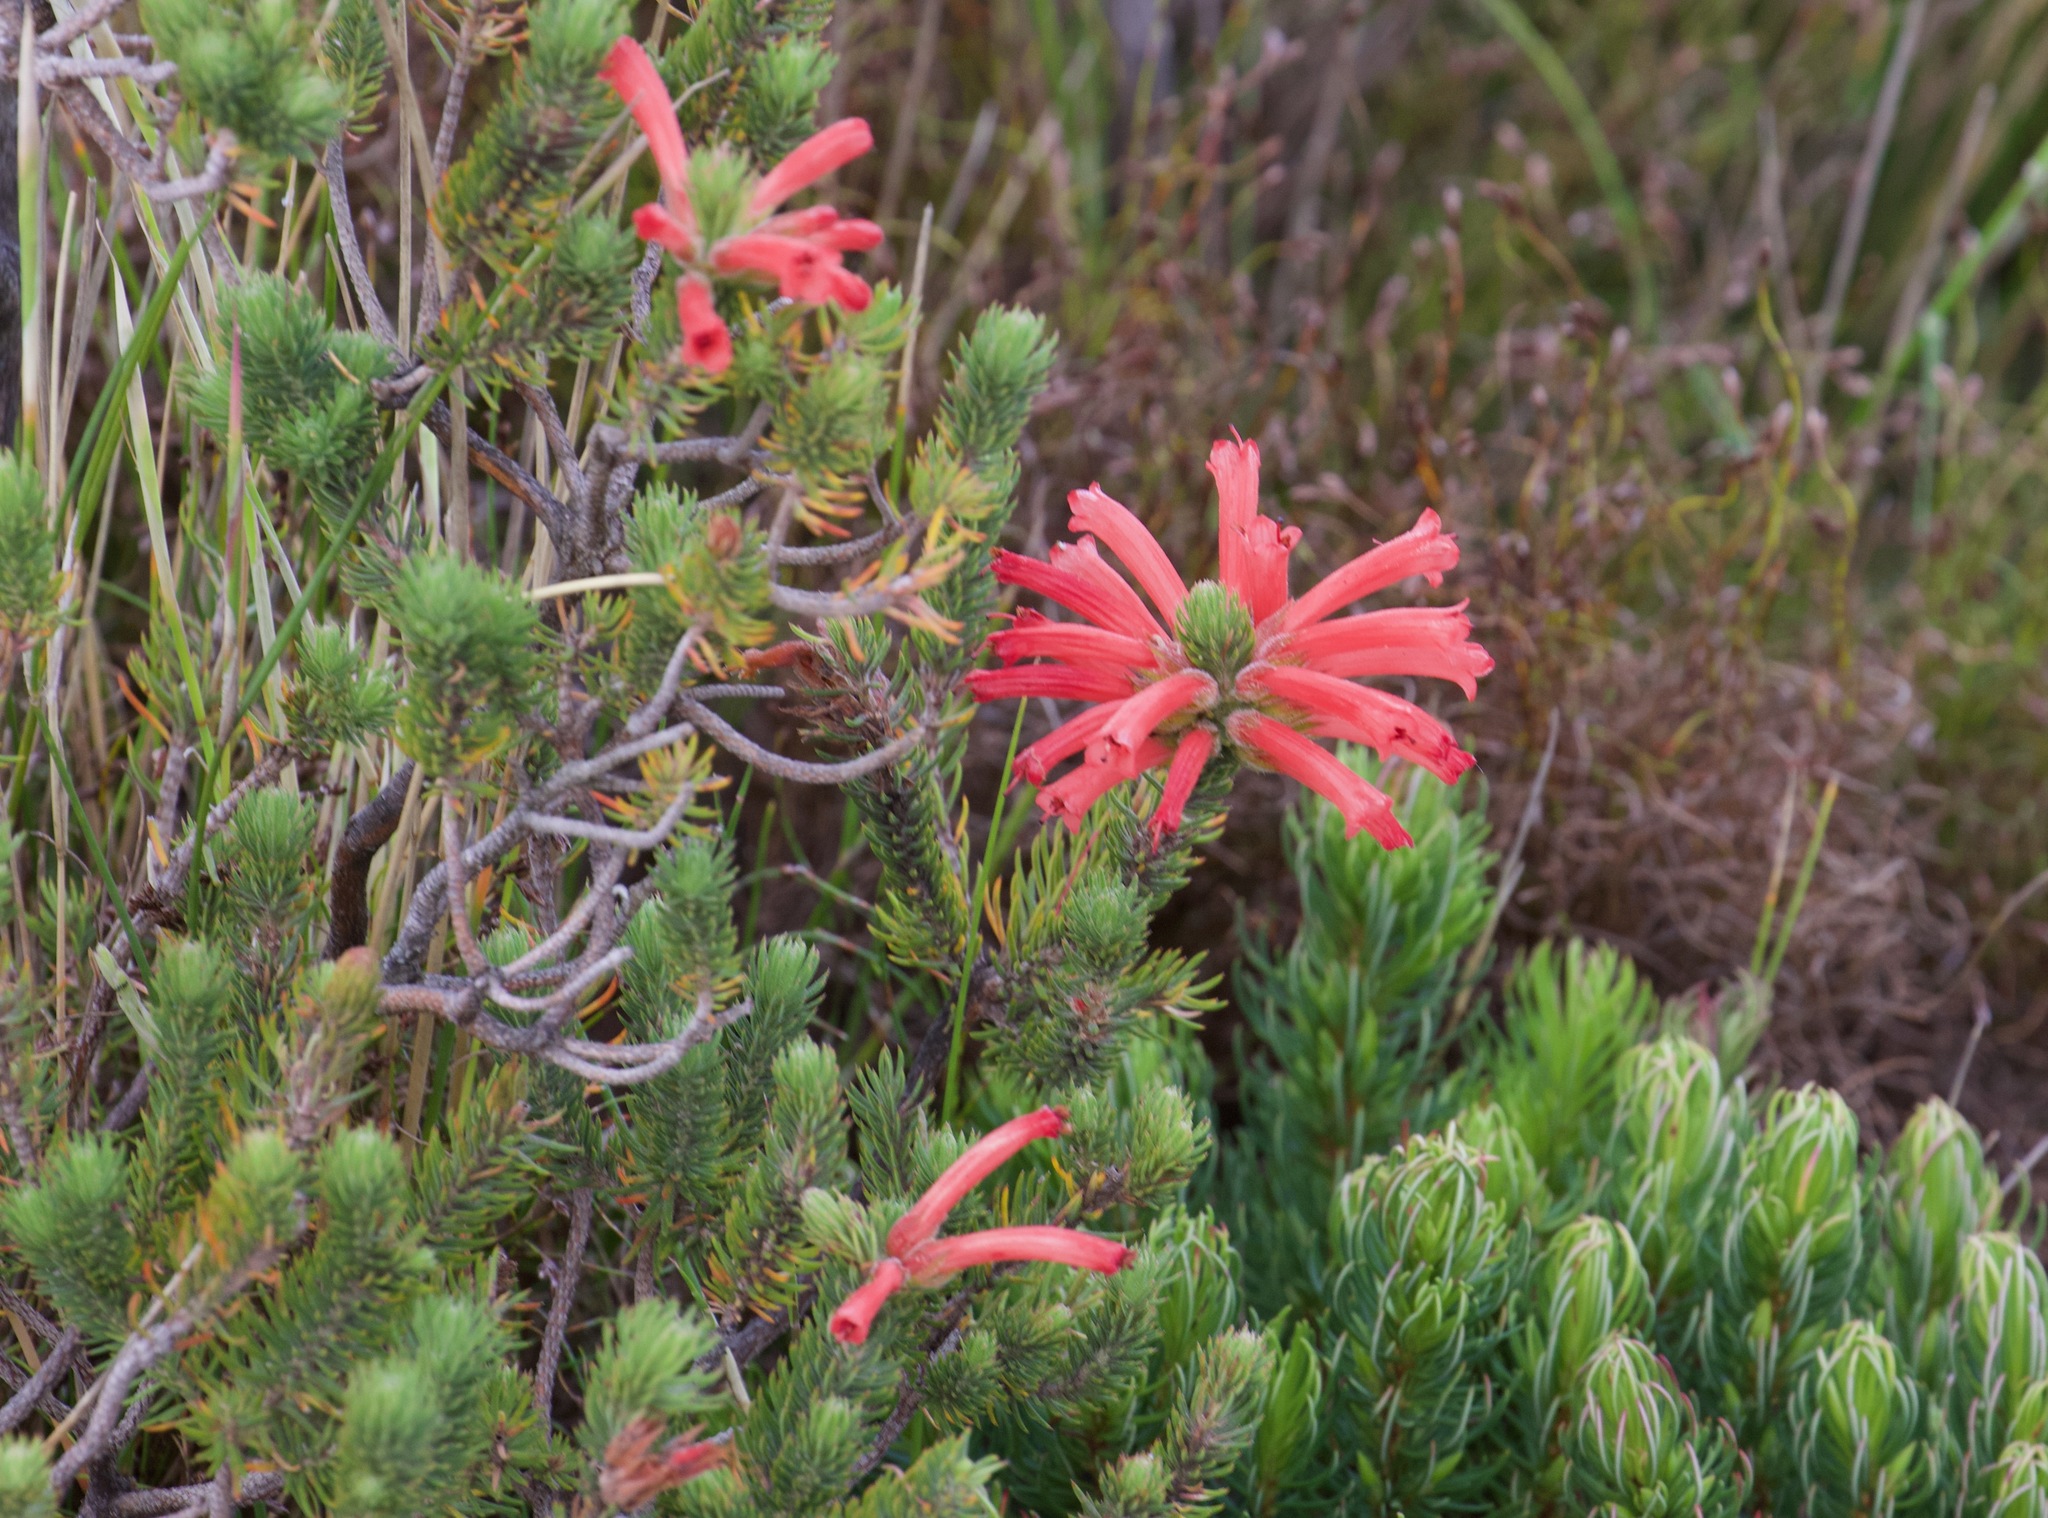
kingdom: Plantae
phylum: Tracheophyta
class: Magnoliopsida
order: Ericales
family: Ericaceae
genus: Erica
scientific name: Erica abietina
